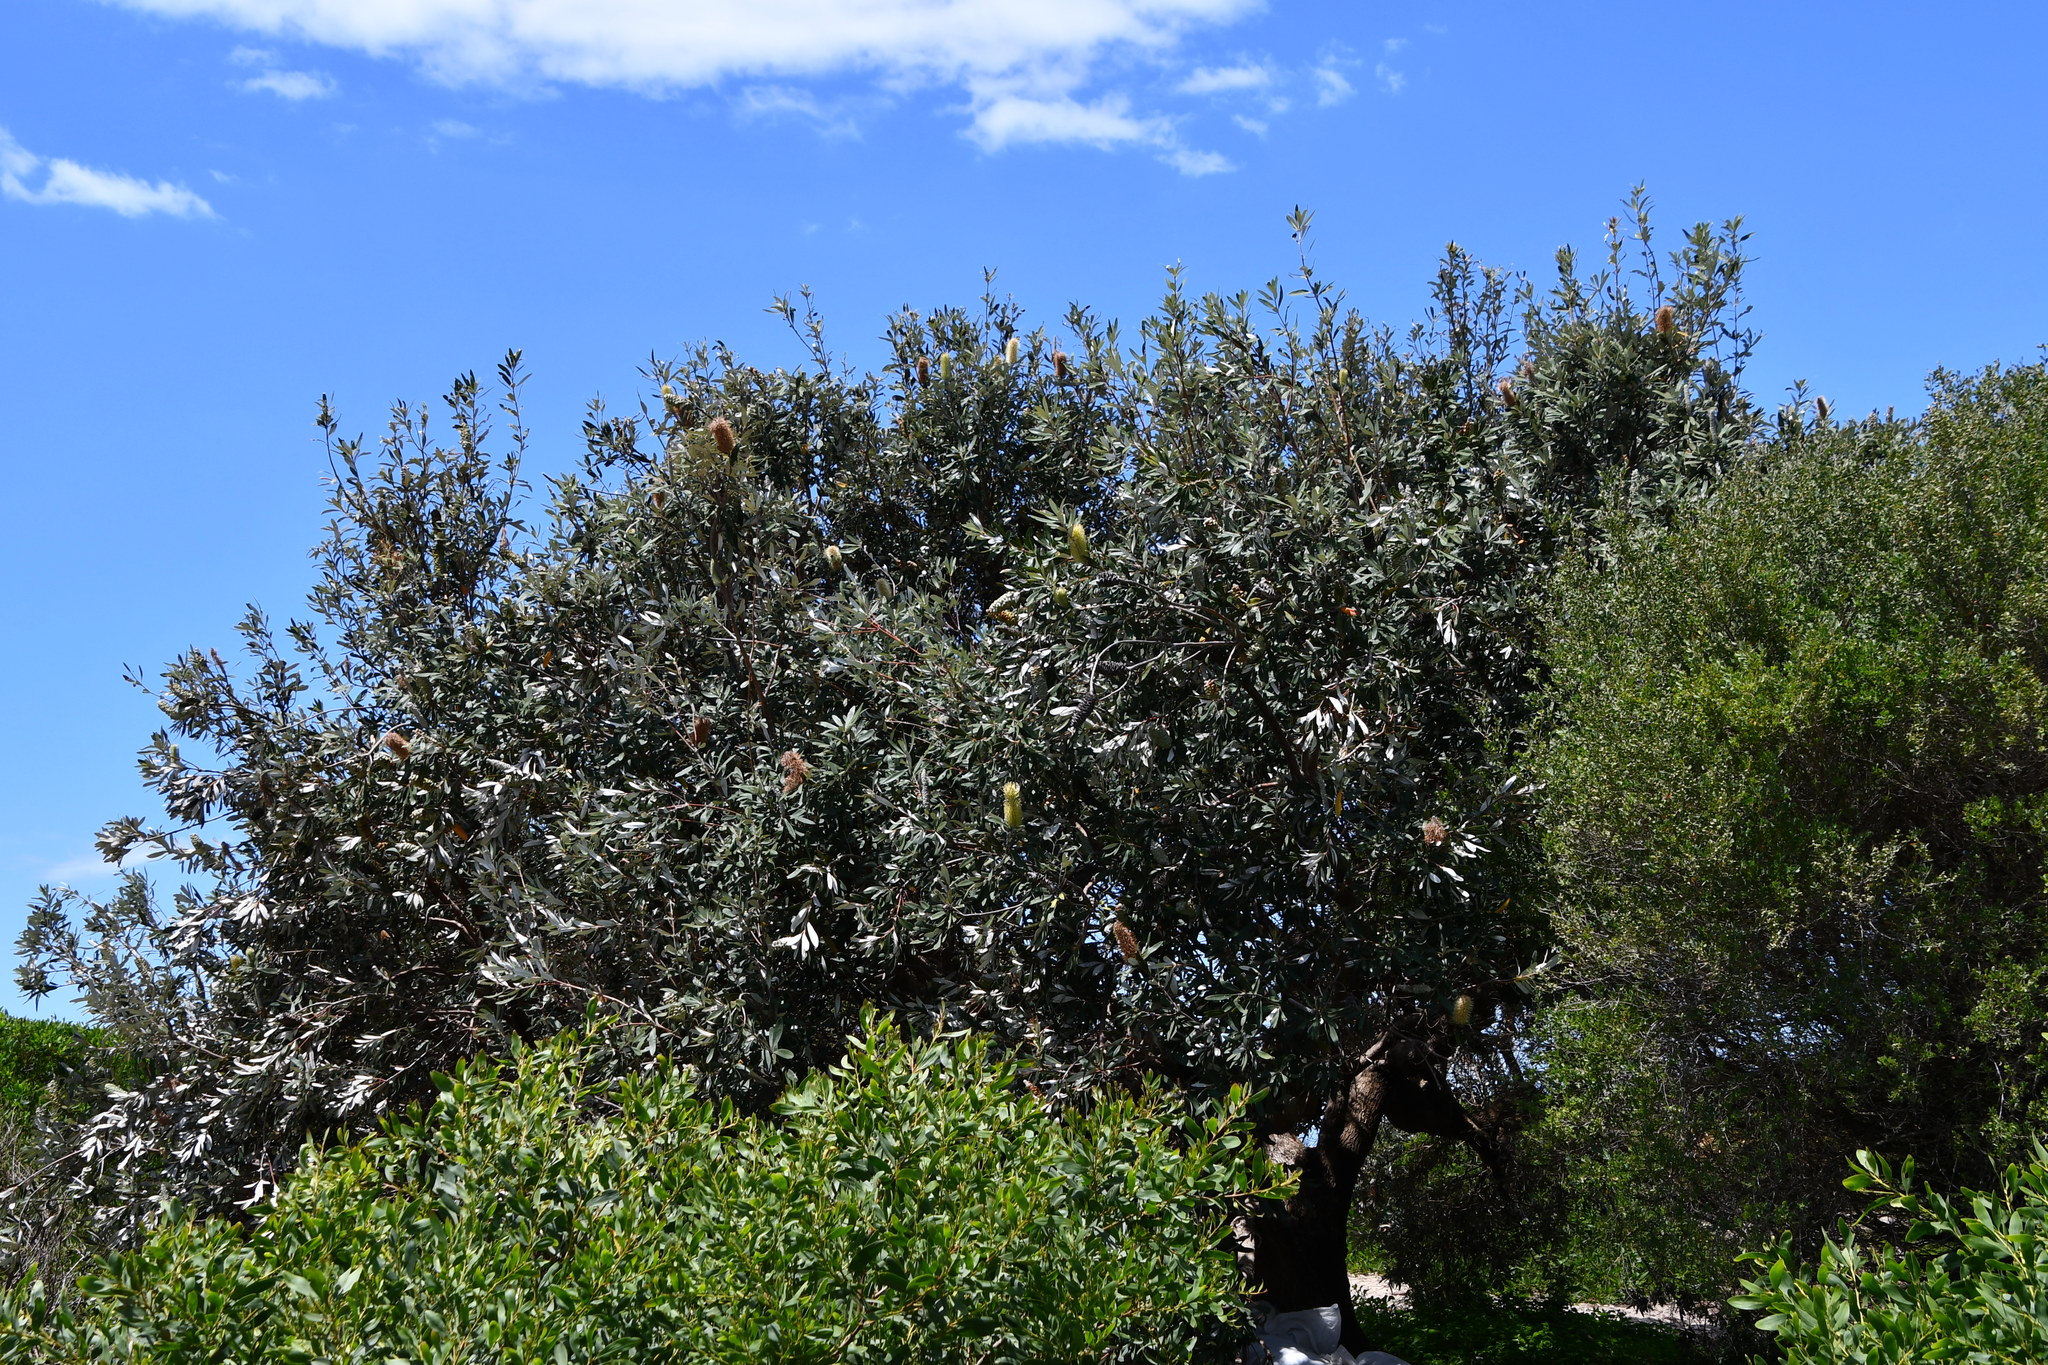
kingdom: Plantae
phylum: Tracheophyta
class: Magnoliopsida
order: Proteales
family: Proteaceae
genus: Banksia
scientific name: Banksia integrifolia
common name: White-honeysuckle
